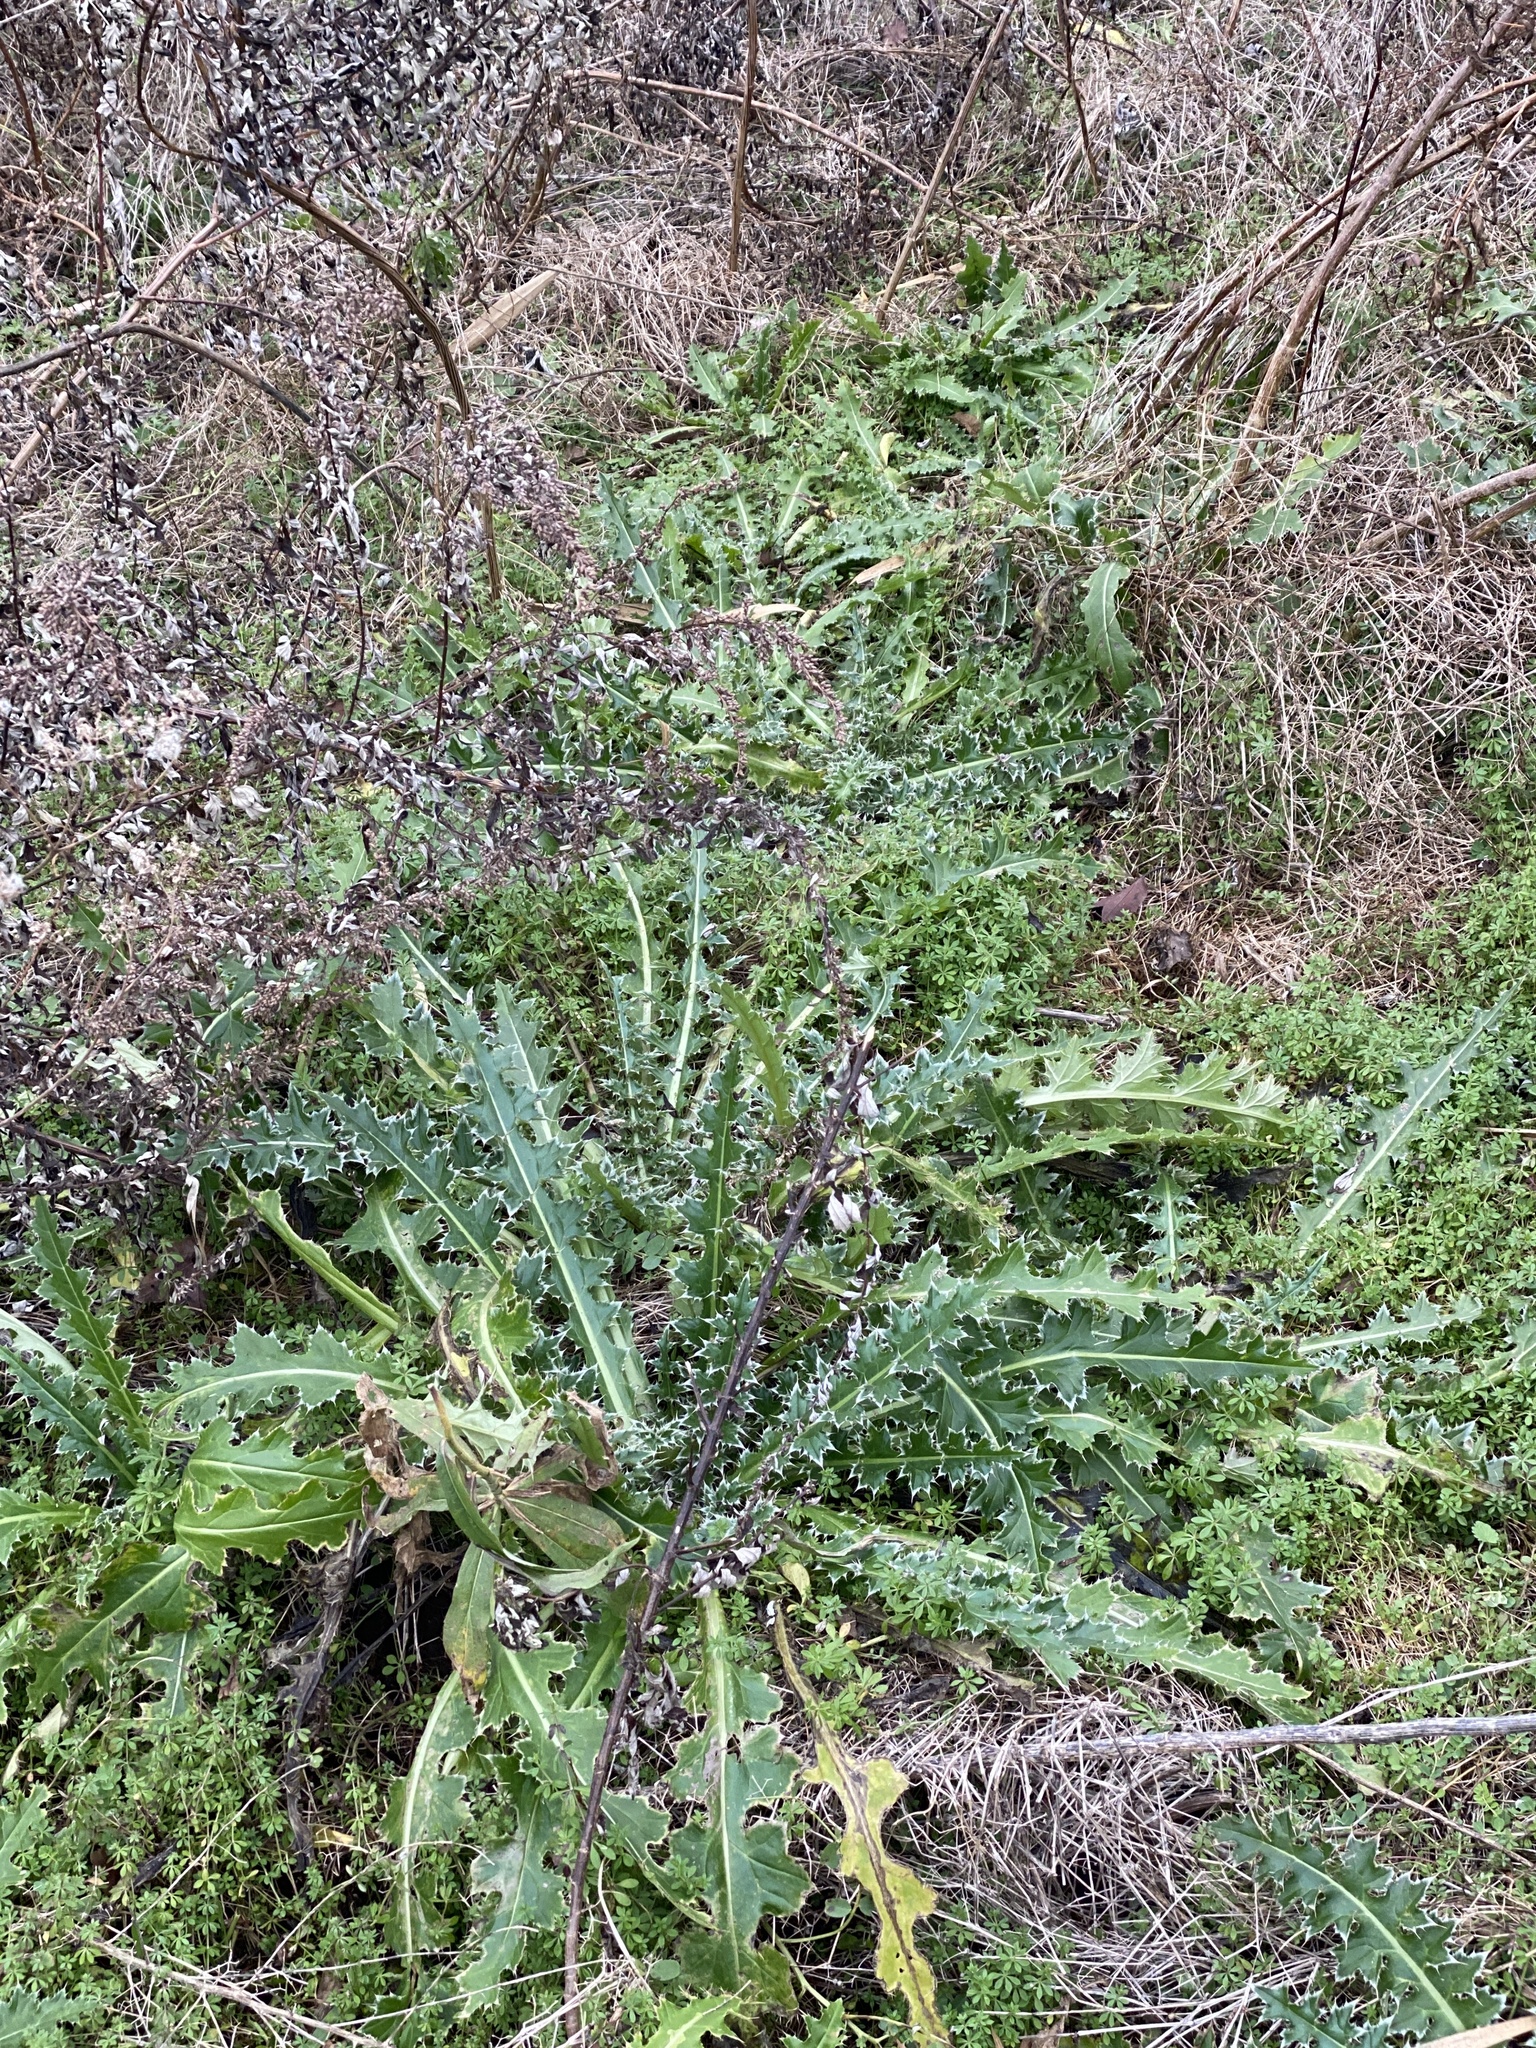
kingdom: Plantae
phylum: Tracheophyta
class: Magnoliopsida
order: Asterales
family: Asteraceae
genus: Carduus
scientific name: Carduus nutans
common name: Musk thistle
